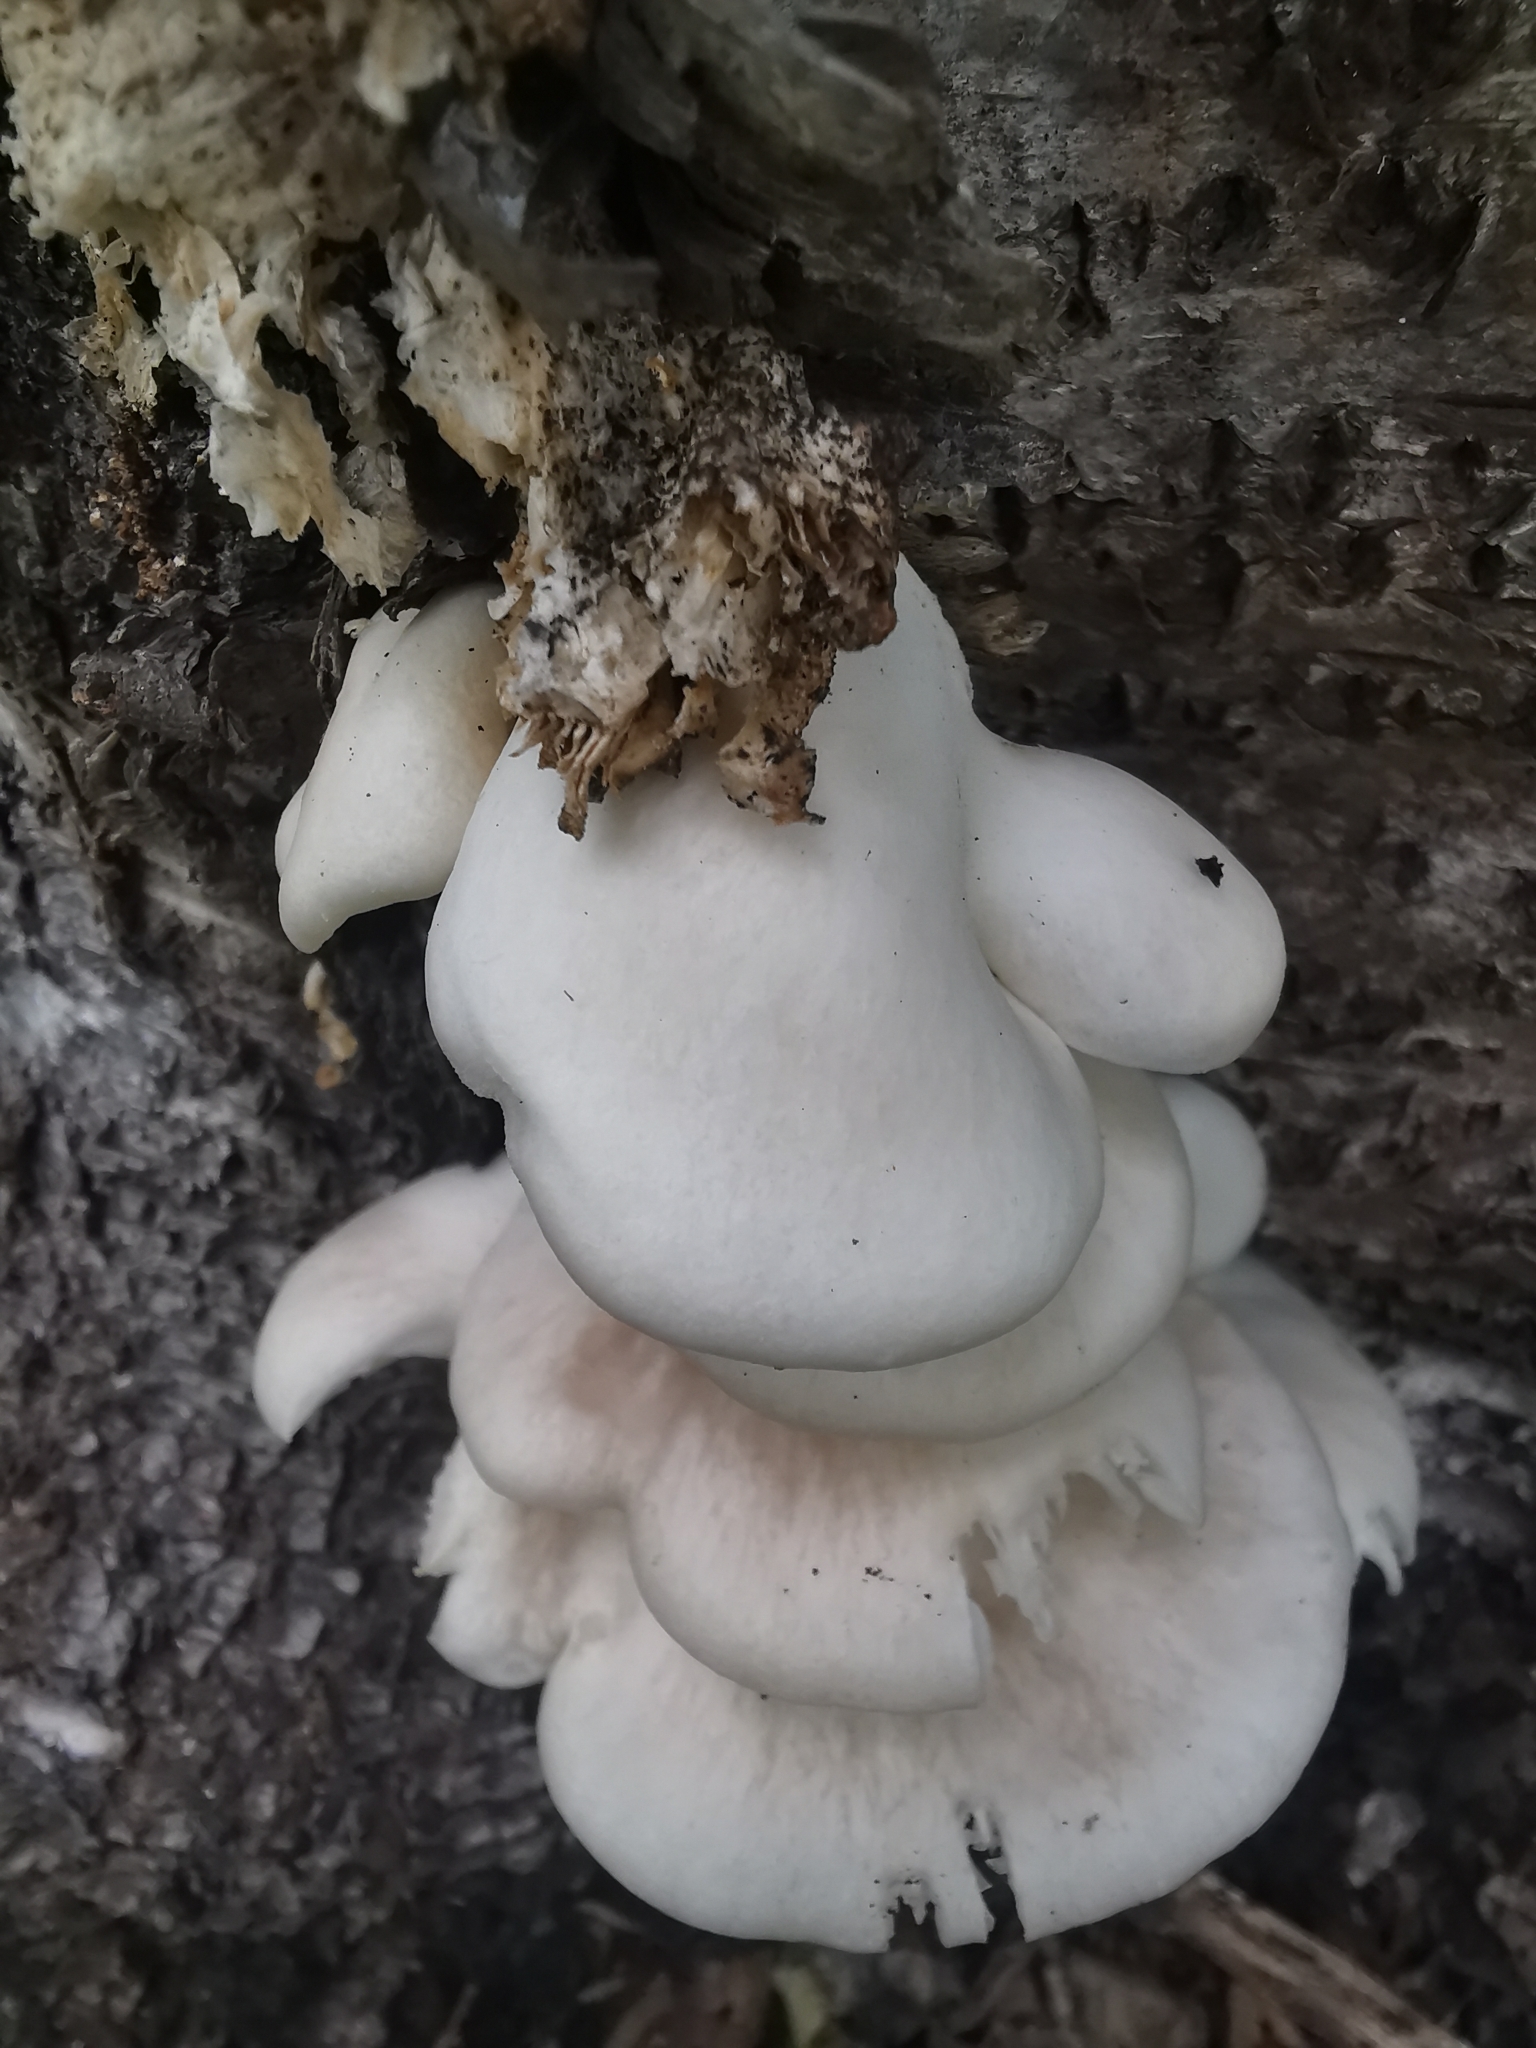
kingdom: Fungi
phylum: Basidiomycota
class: Agaricomycetes
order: Agaricales
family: Sarcomyxaceae
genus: Sarcomyxa
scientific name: Sarcomyxa serotina
